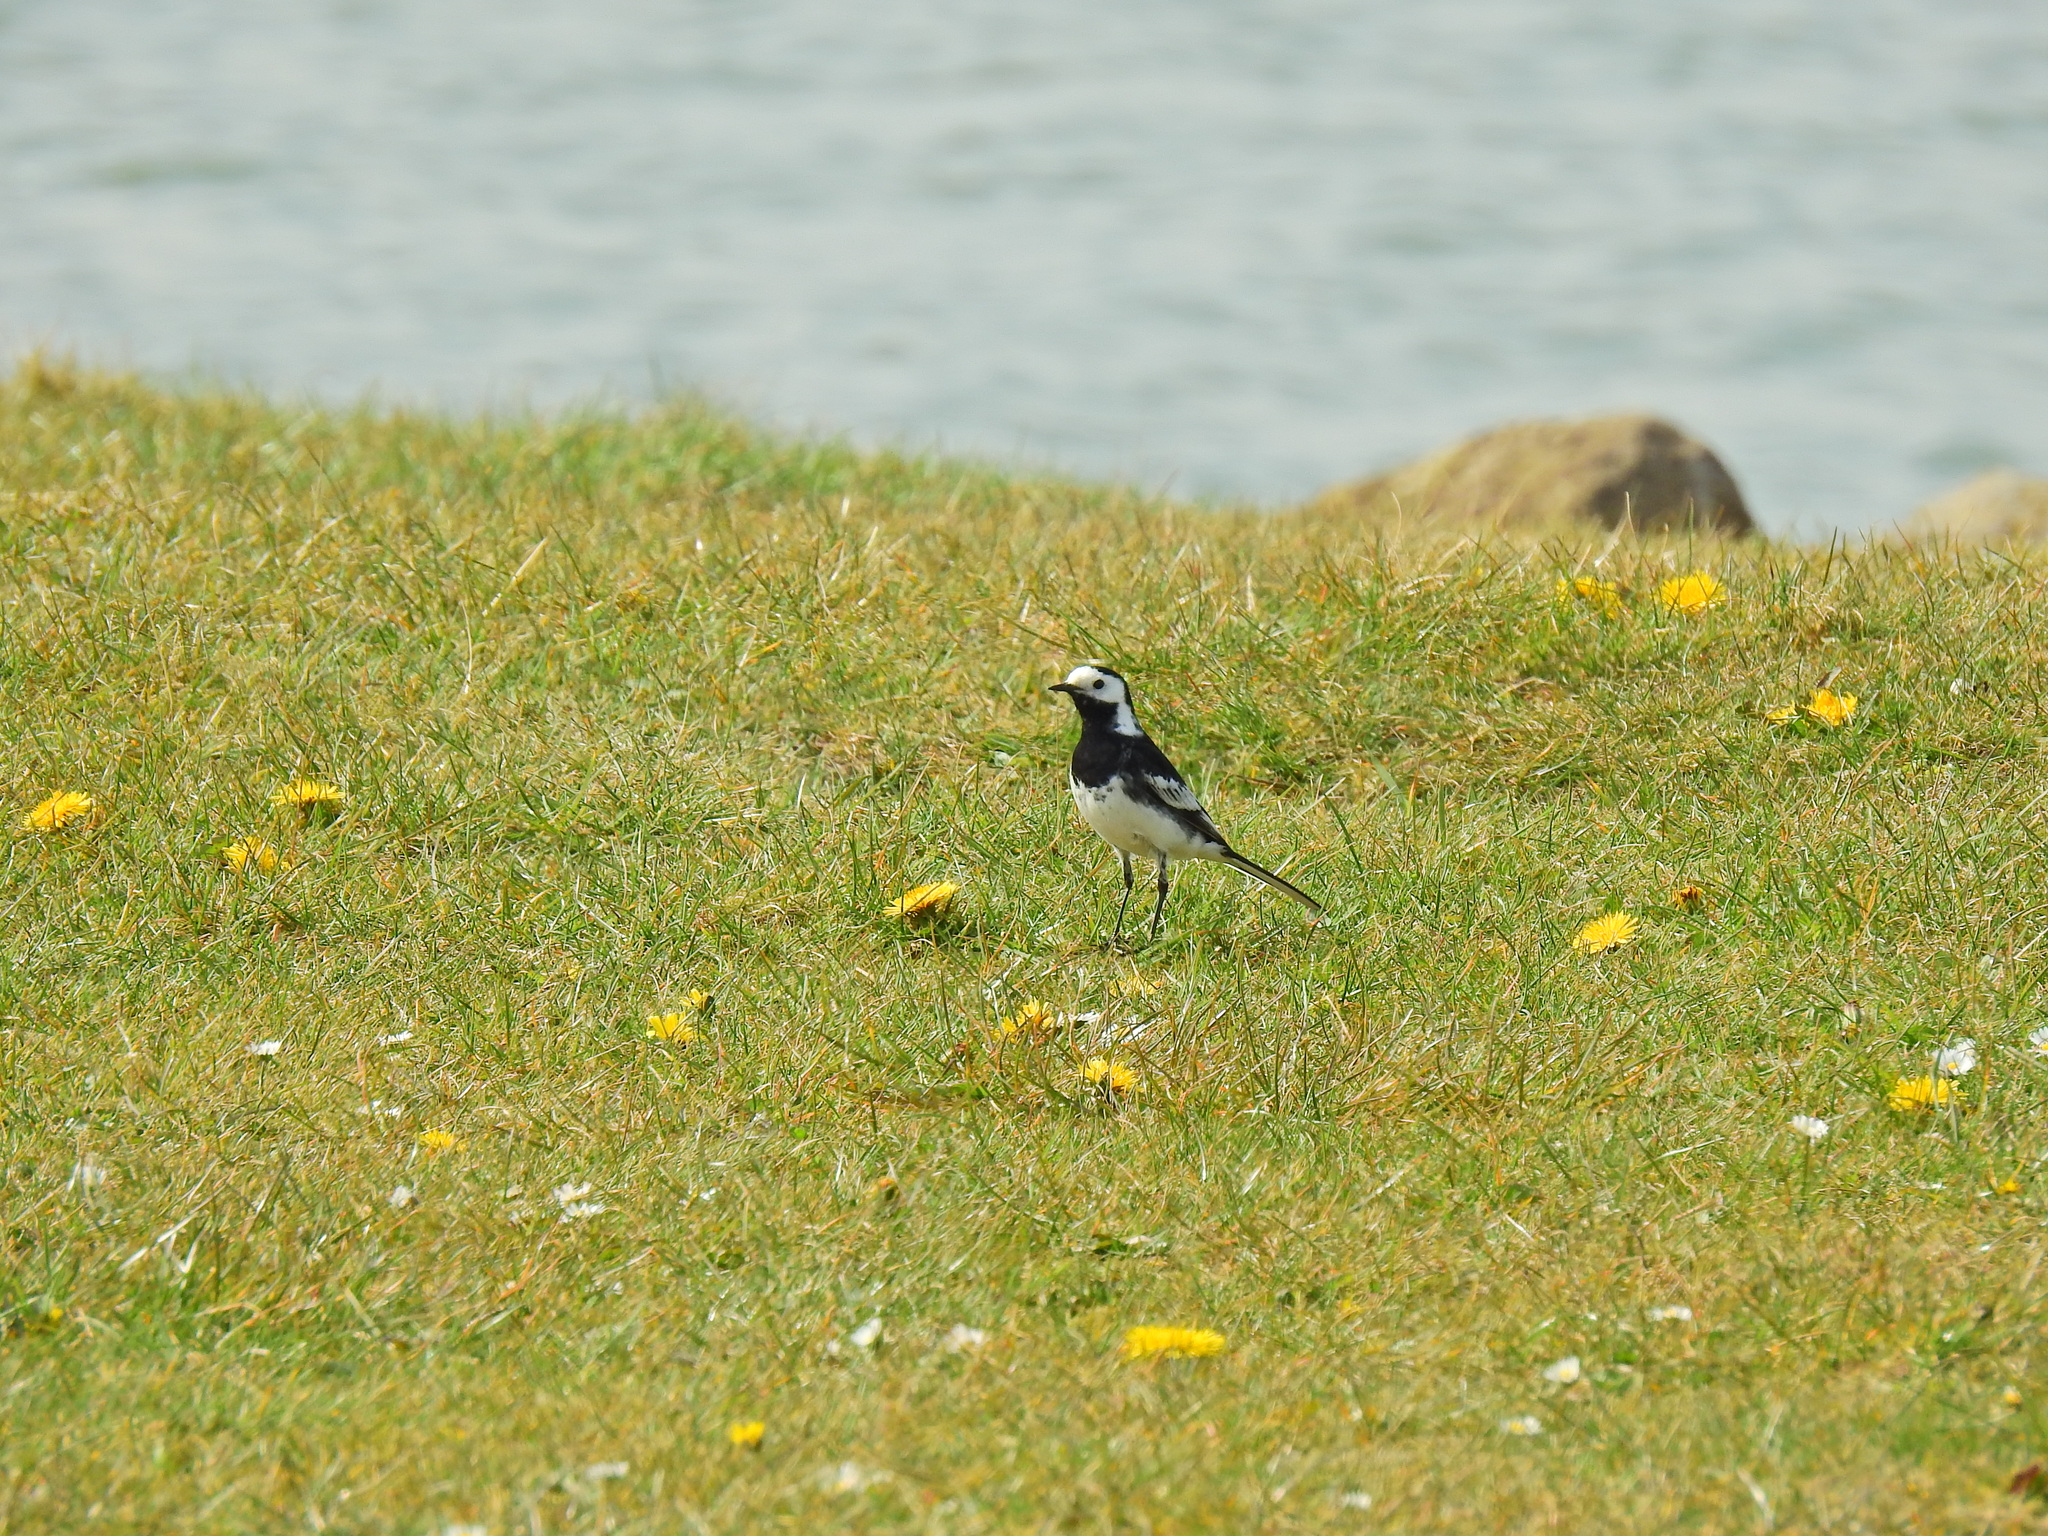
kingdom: Animalia
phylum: Chordata
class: Aves
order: Passeriformes
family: Motacillidae
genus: Motacilla
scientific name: Motacilla alba
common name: White wagtail
